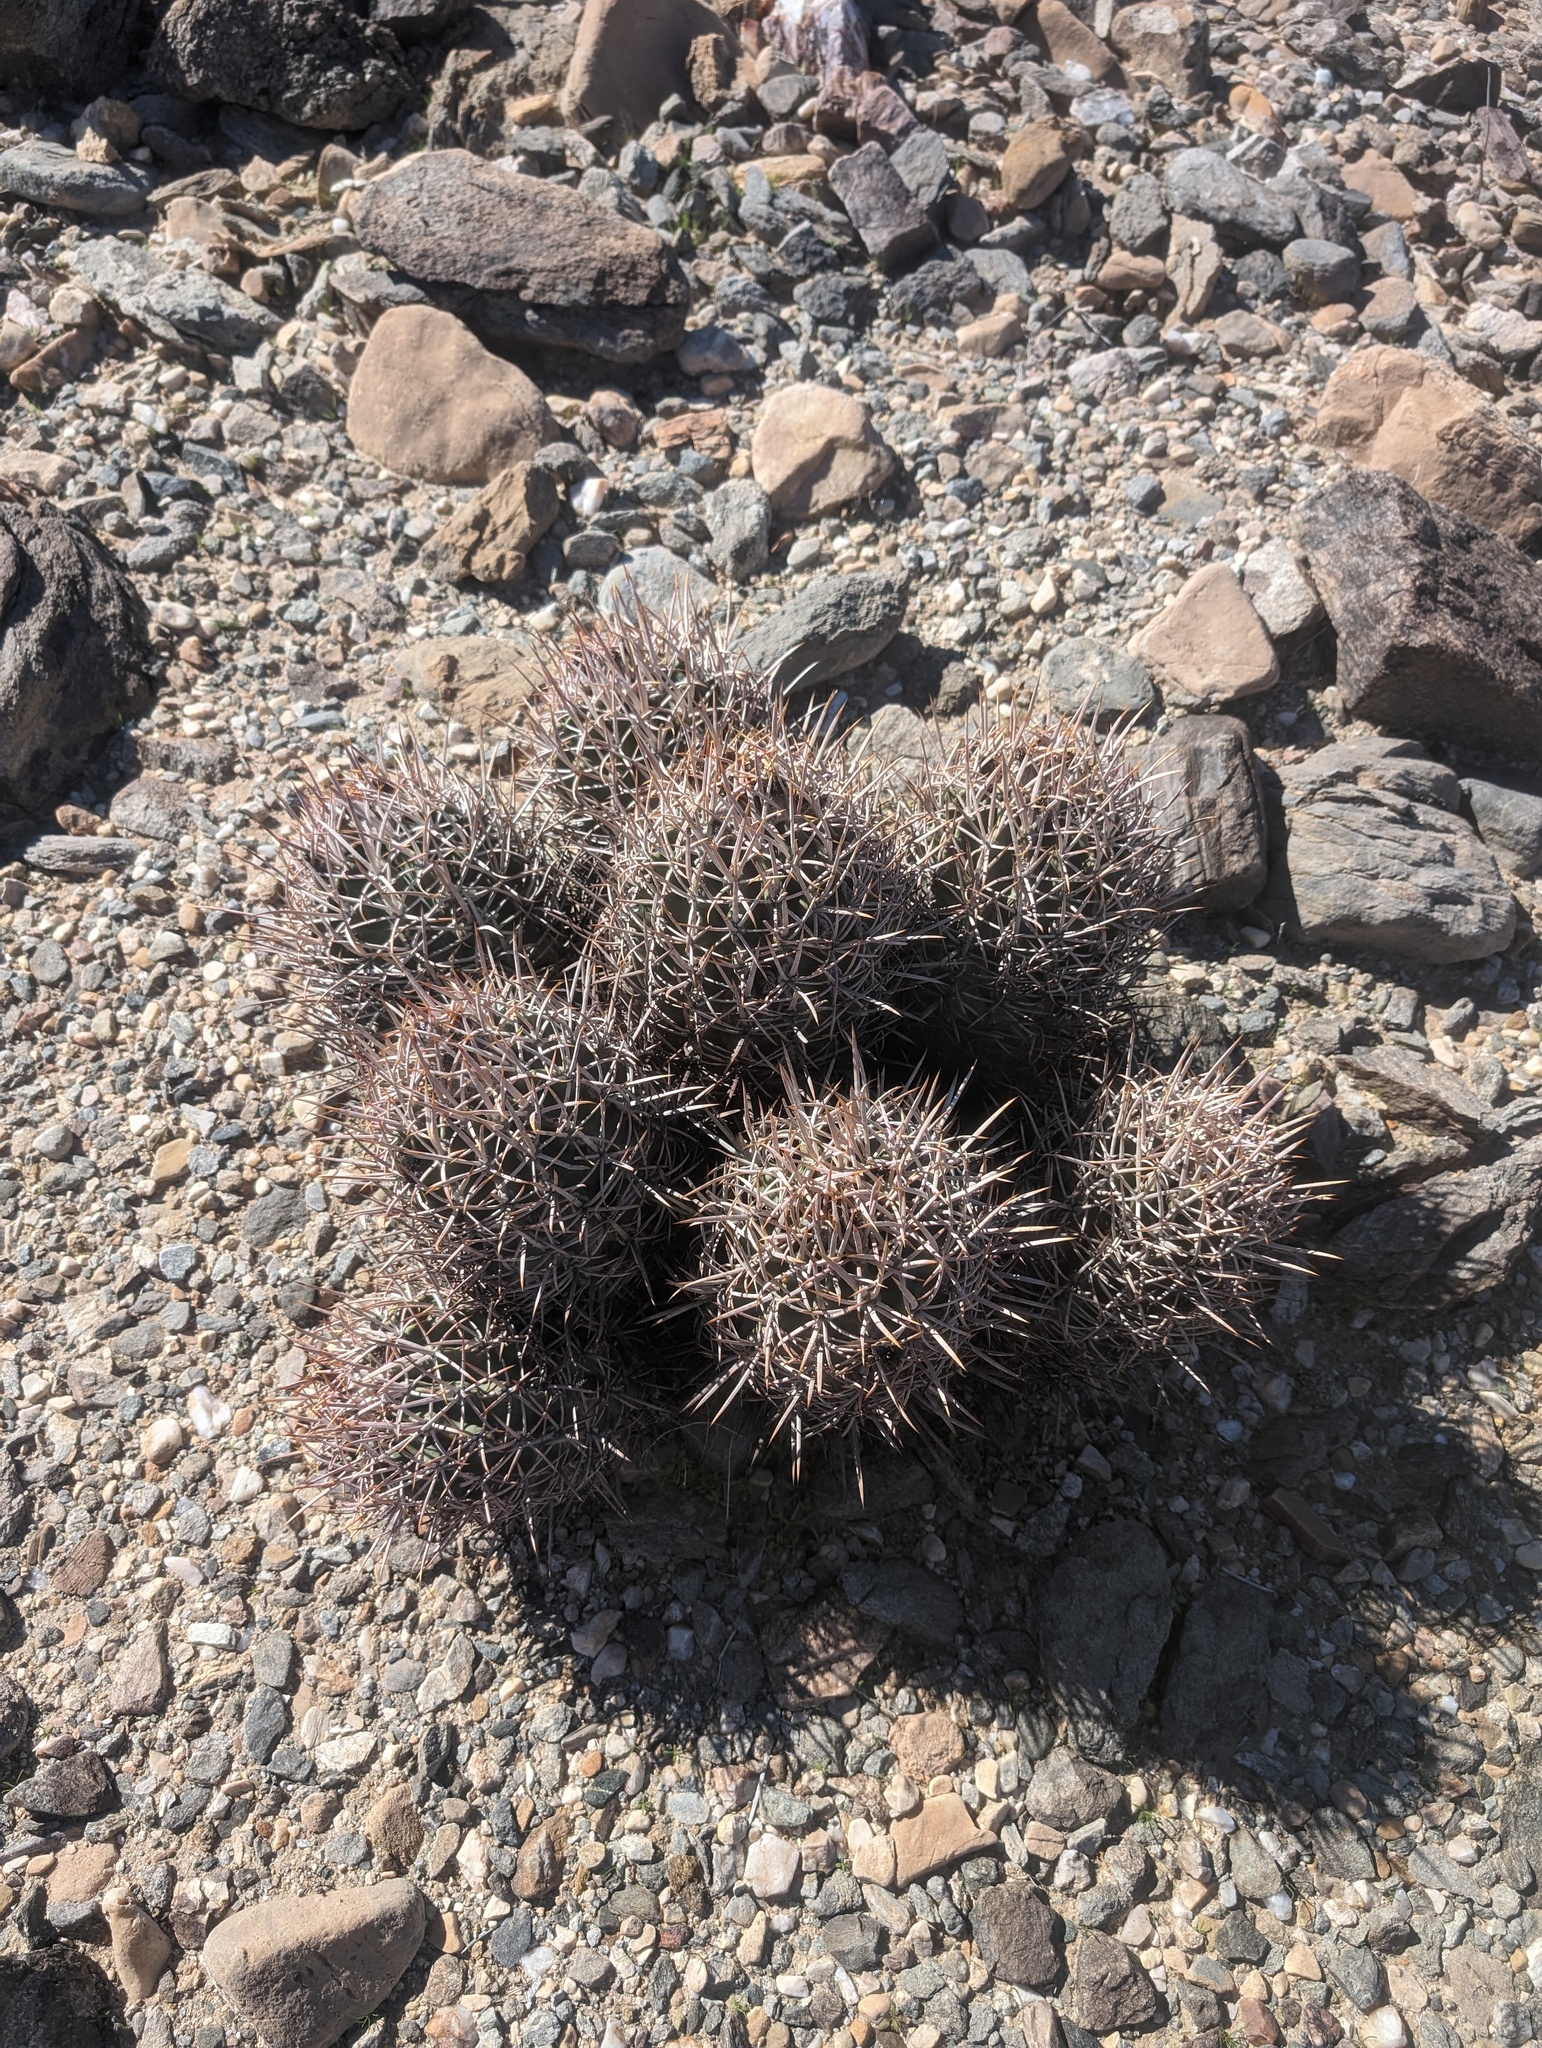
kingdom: Plantae
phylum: Tracheophyta
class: Magnoliopsida
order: Caryophyllales
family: Cactaceae
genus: Echinocactus
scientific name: Echinocactus polycephalus
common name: Cottontop cactus
